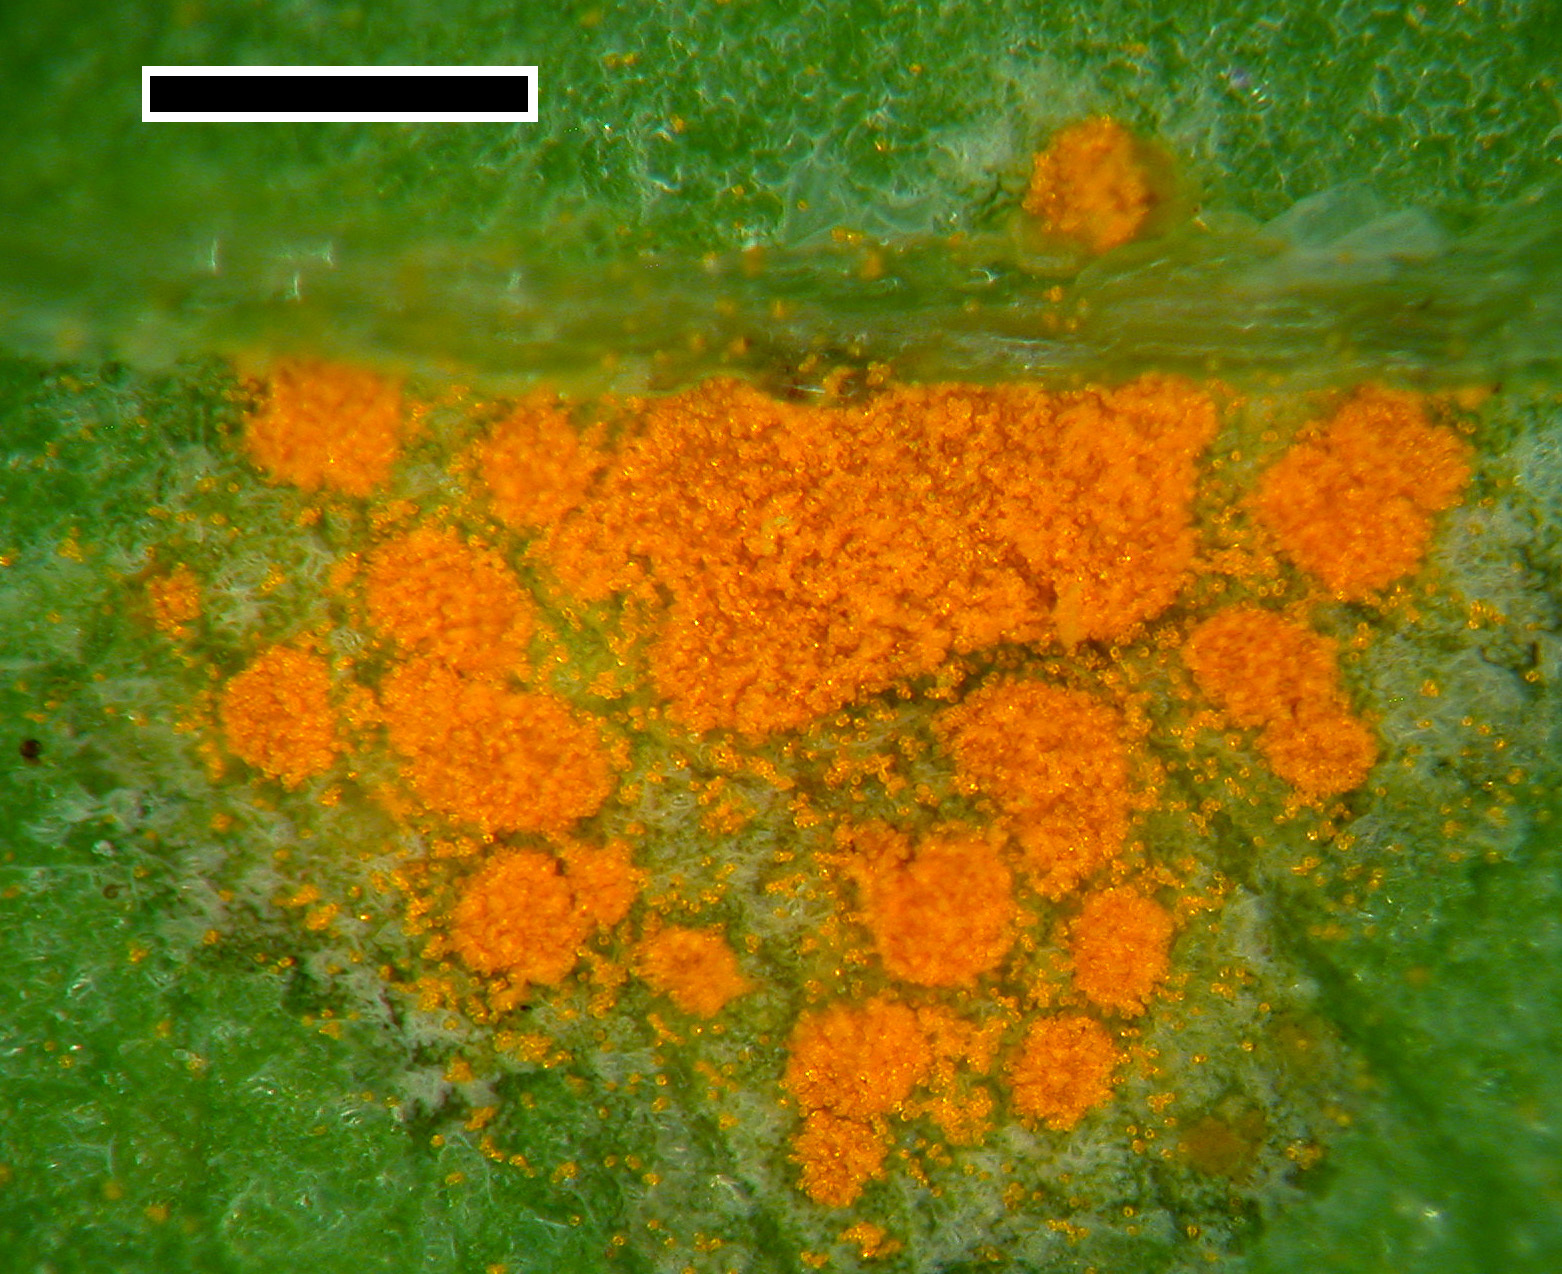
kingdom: Fungi
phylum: Basidiomycota
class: Pucciniomycetes
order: Pucciniales
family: Pucciniaceae
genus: Puccinia
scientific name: Puccinia oxalidis
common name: Oxalis rust
